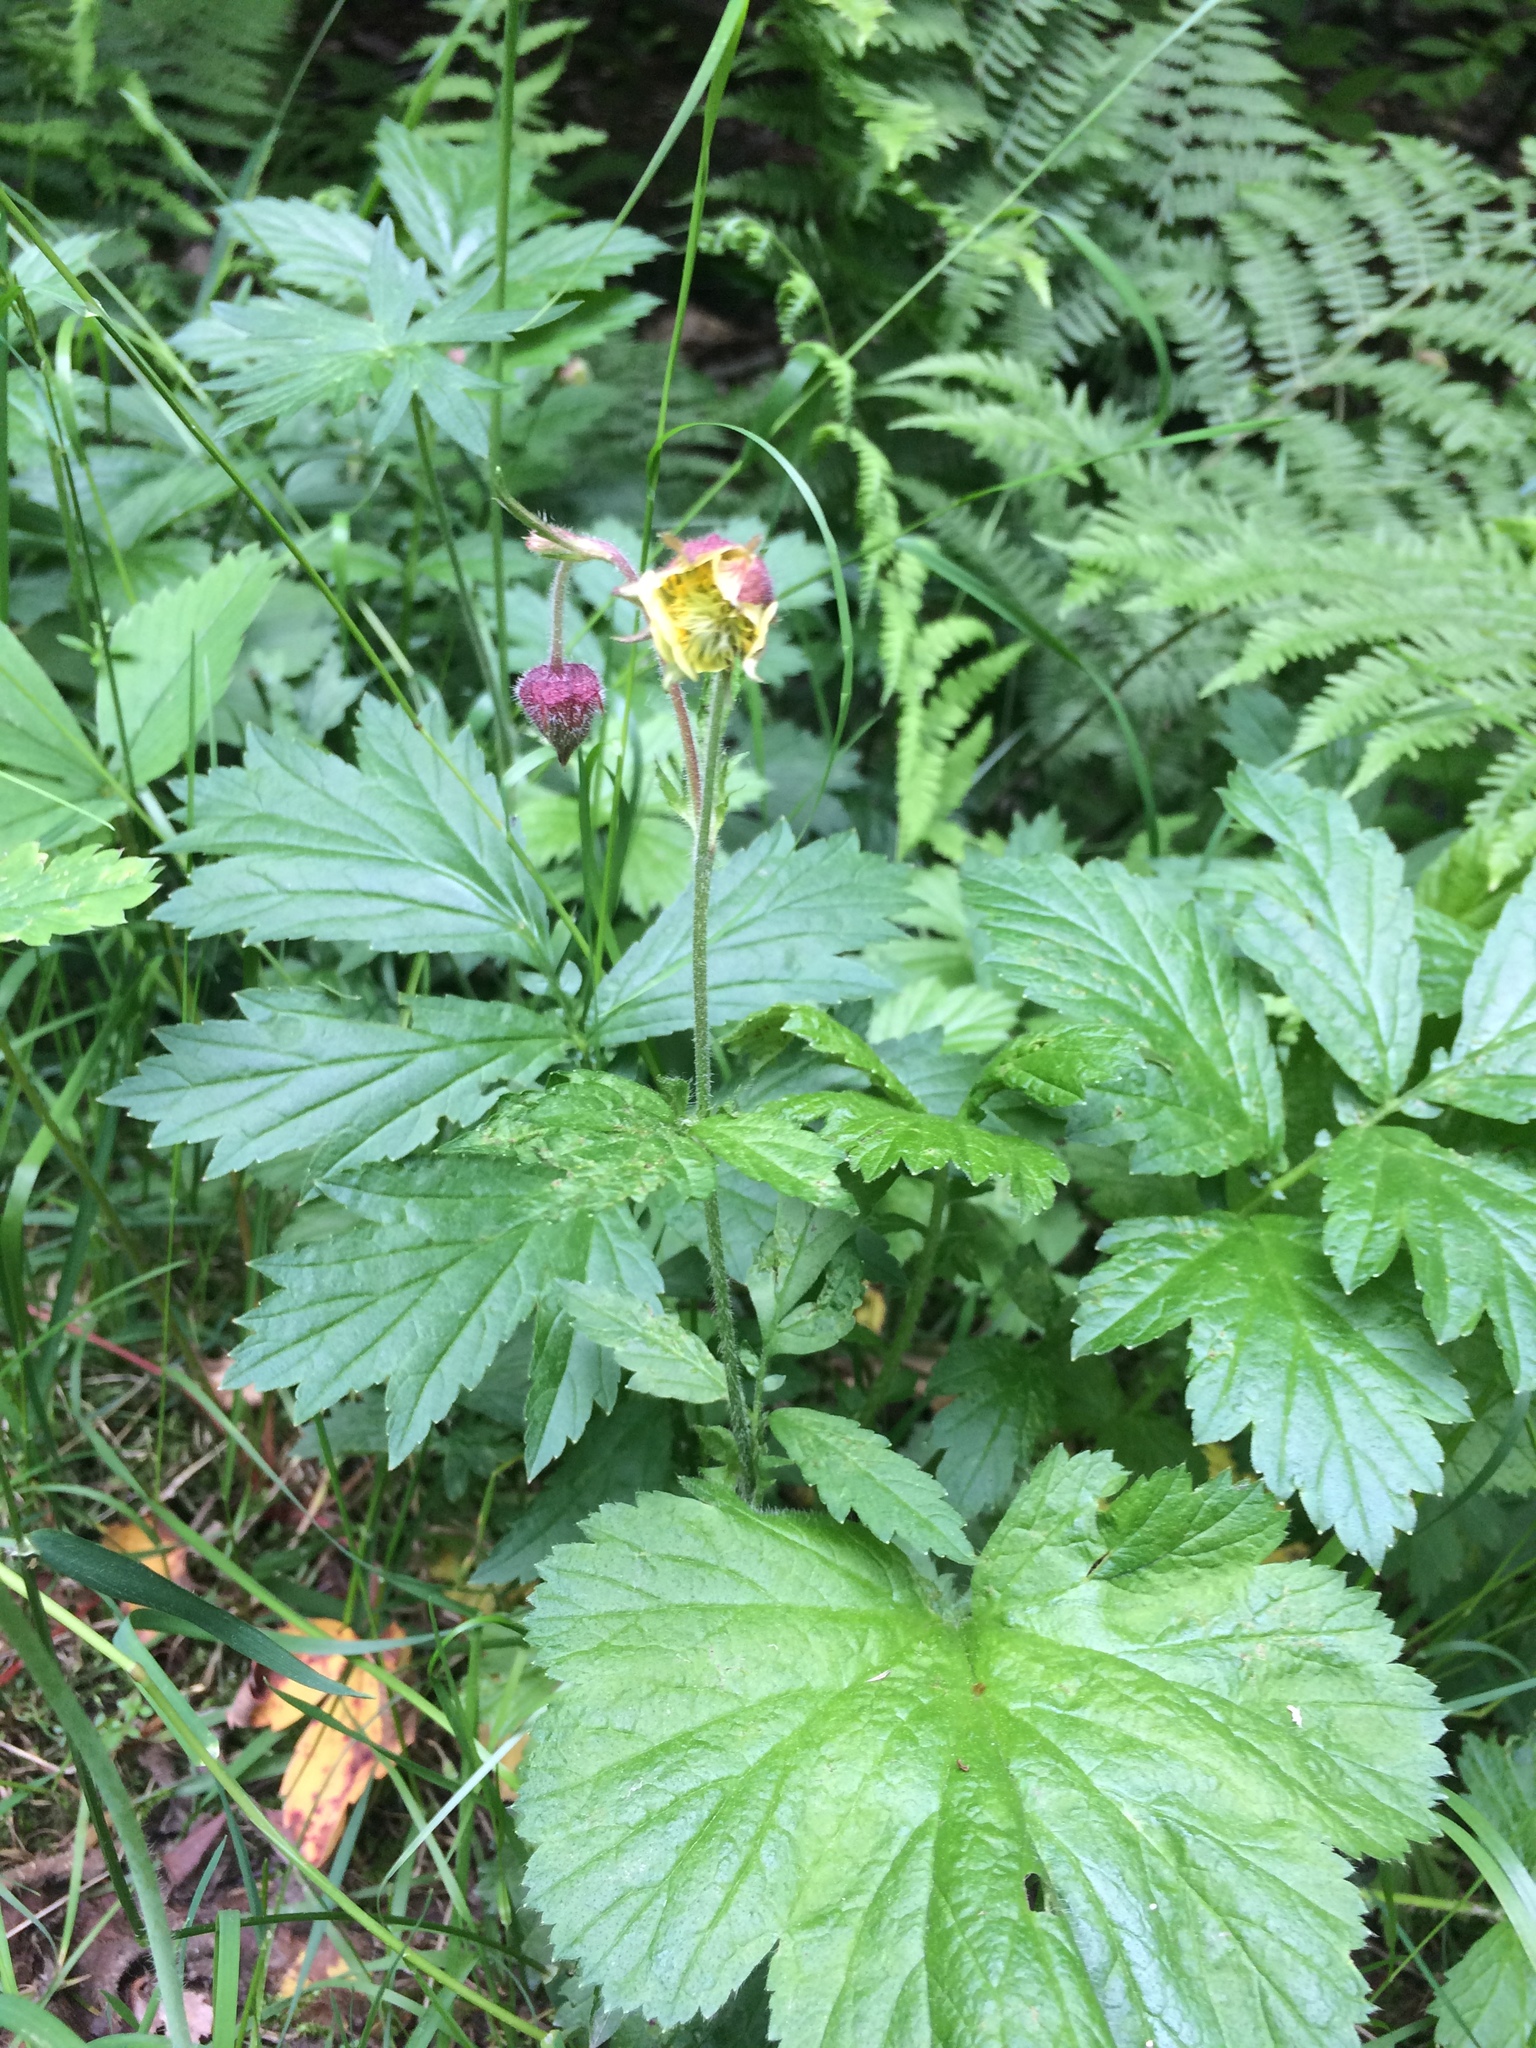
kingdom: Plantae
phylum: Tracheophyta
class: Magnoliopsida
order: Rosales
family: Rosaceae
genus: Geum
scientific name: Geum rivale
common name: Water avens
